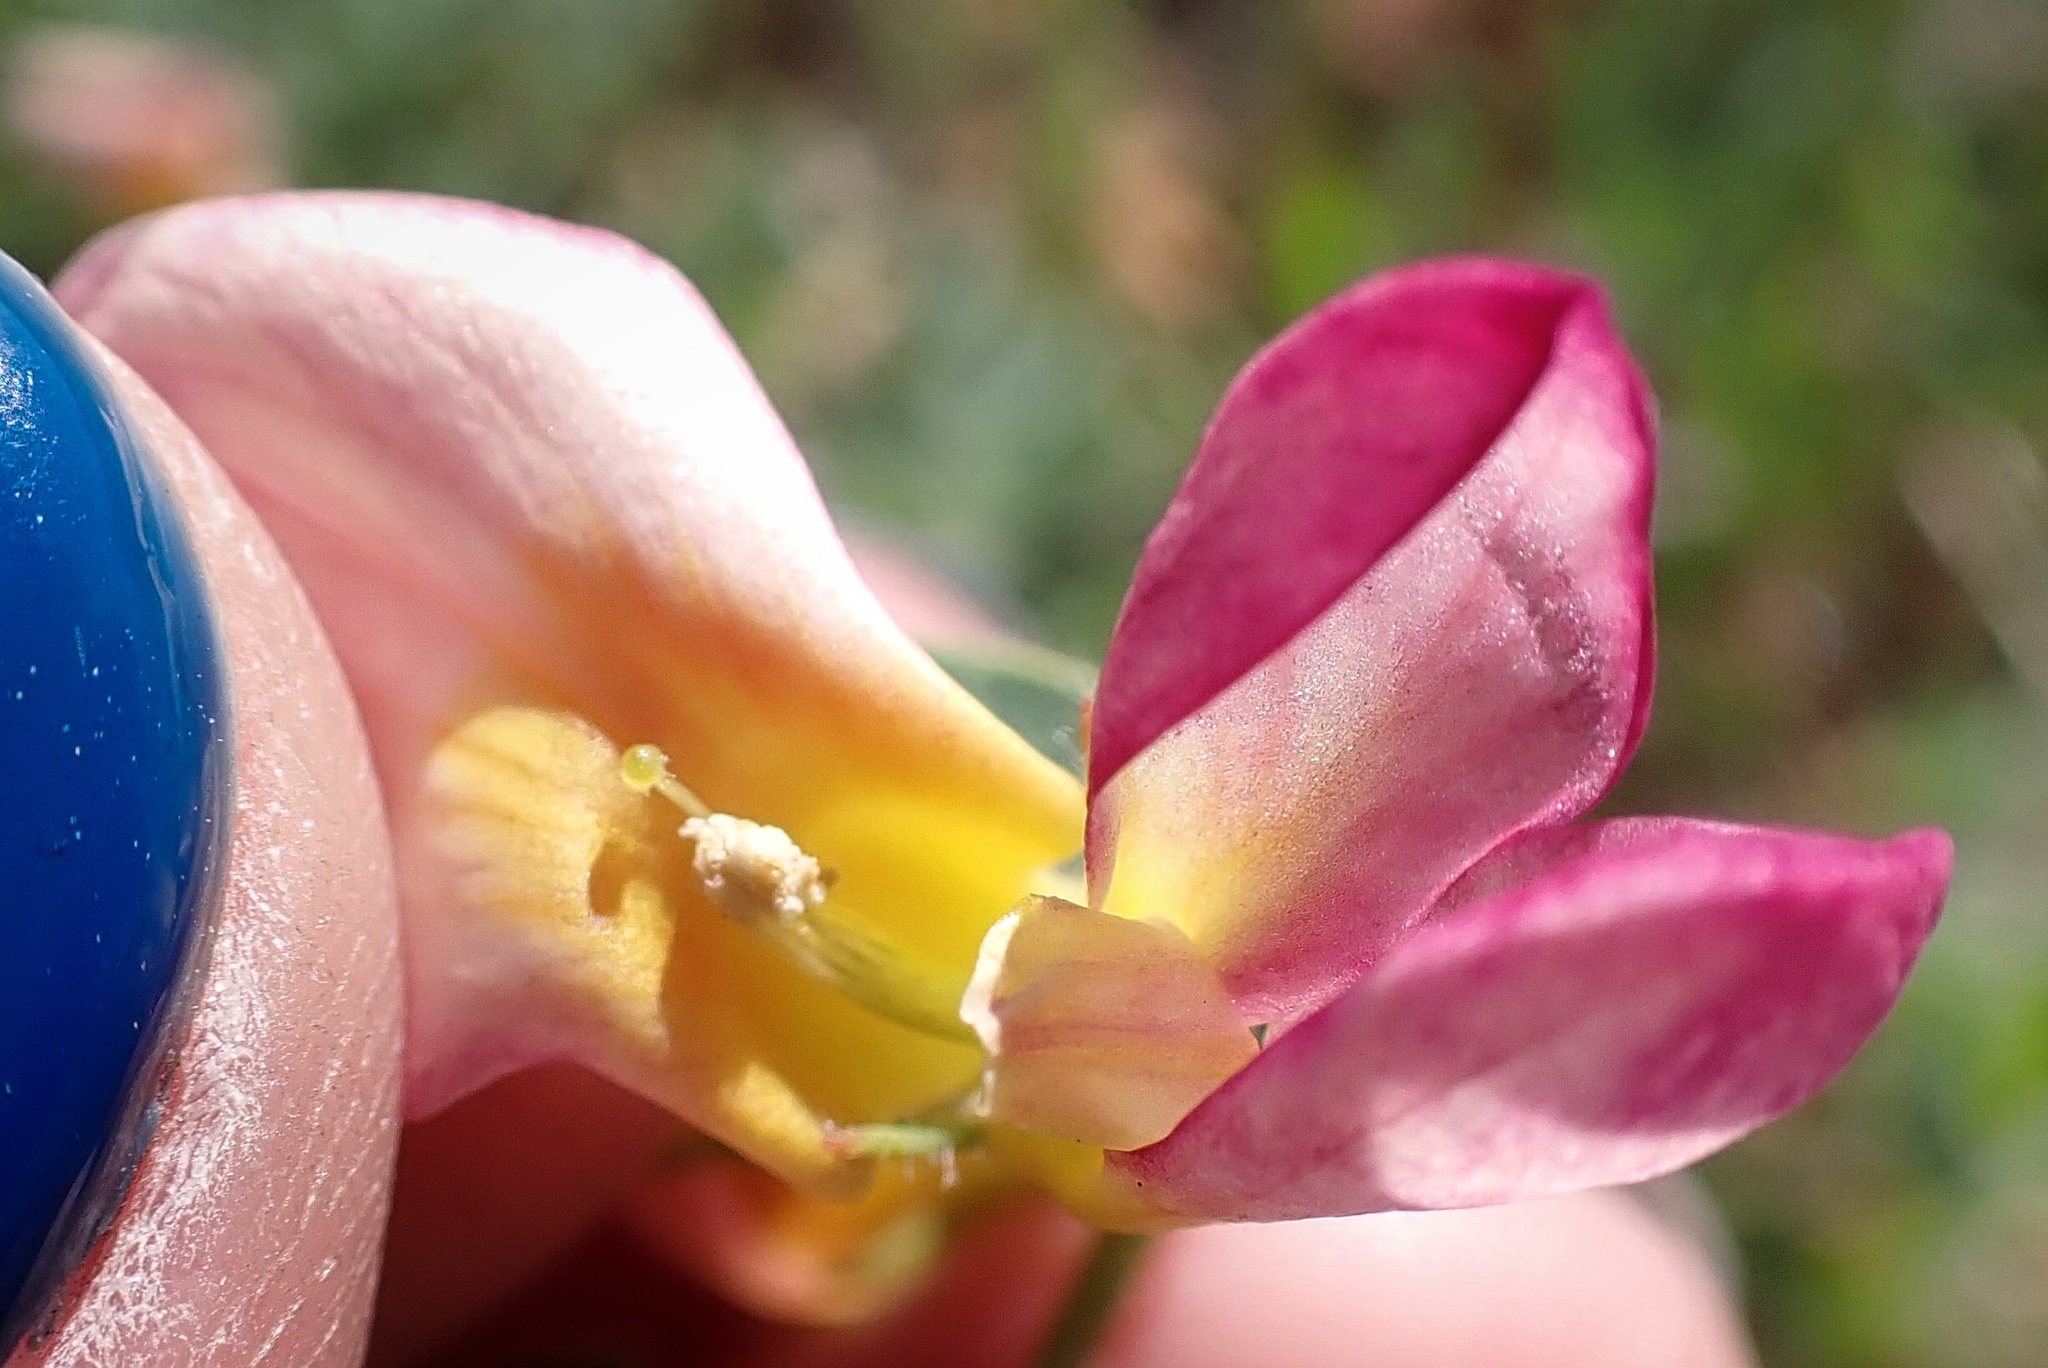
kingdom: Plantae
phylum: Tracheophyta
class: Magnoliopsida
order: Fabales
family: Fabaceae
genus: Acmispon
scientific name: Acmispon grandiflorus
